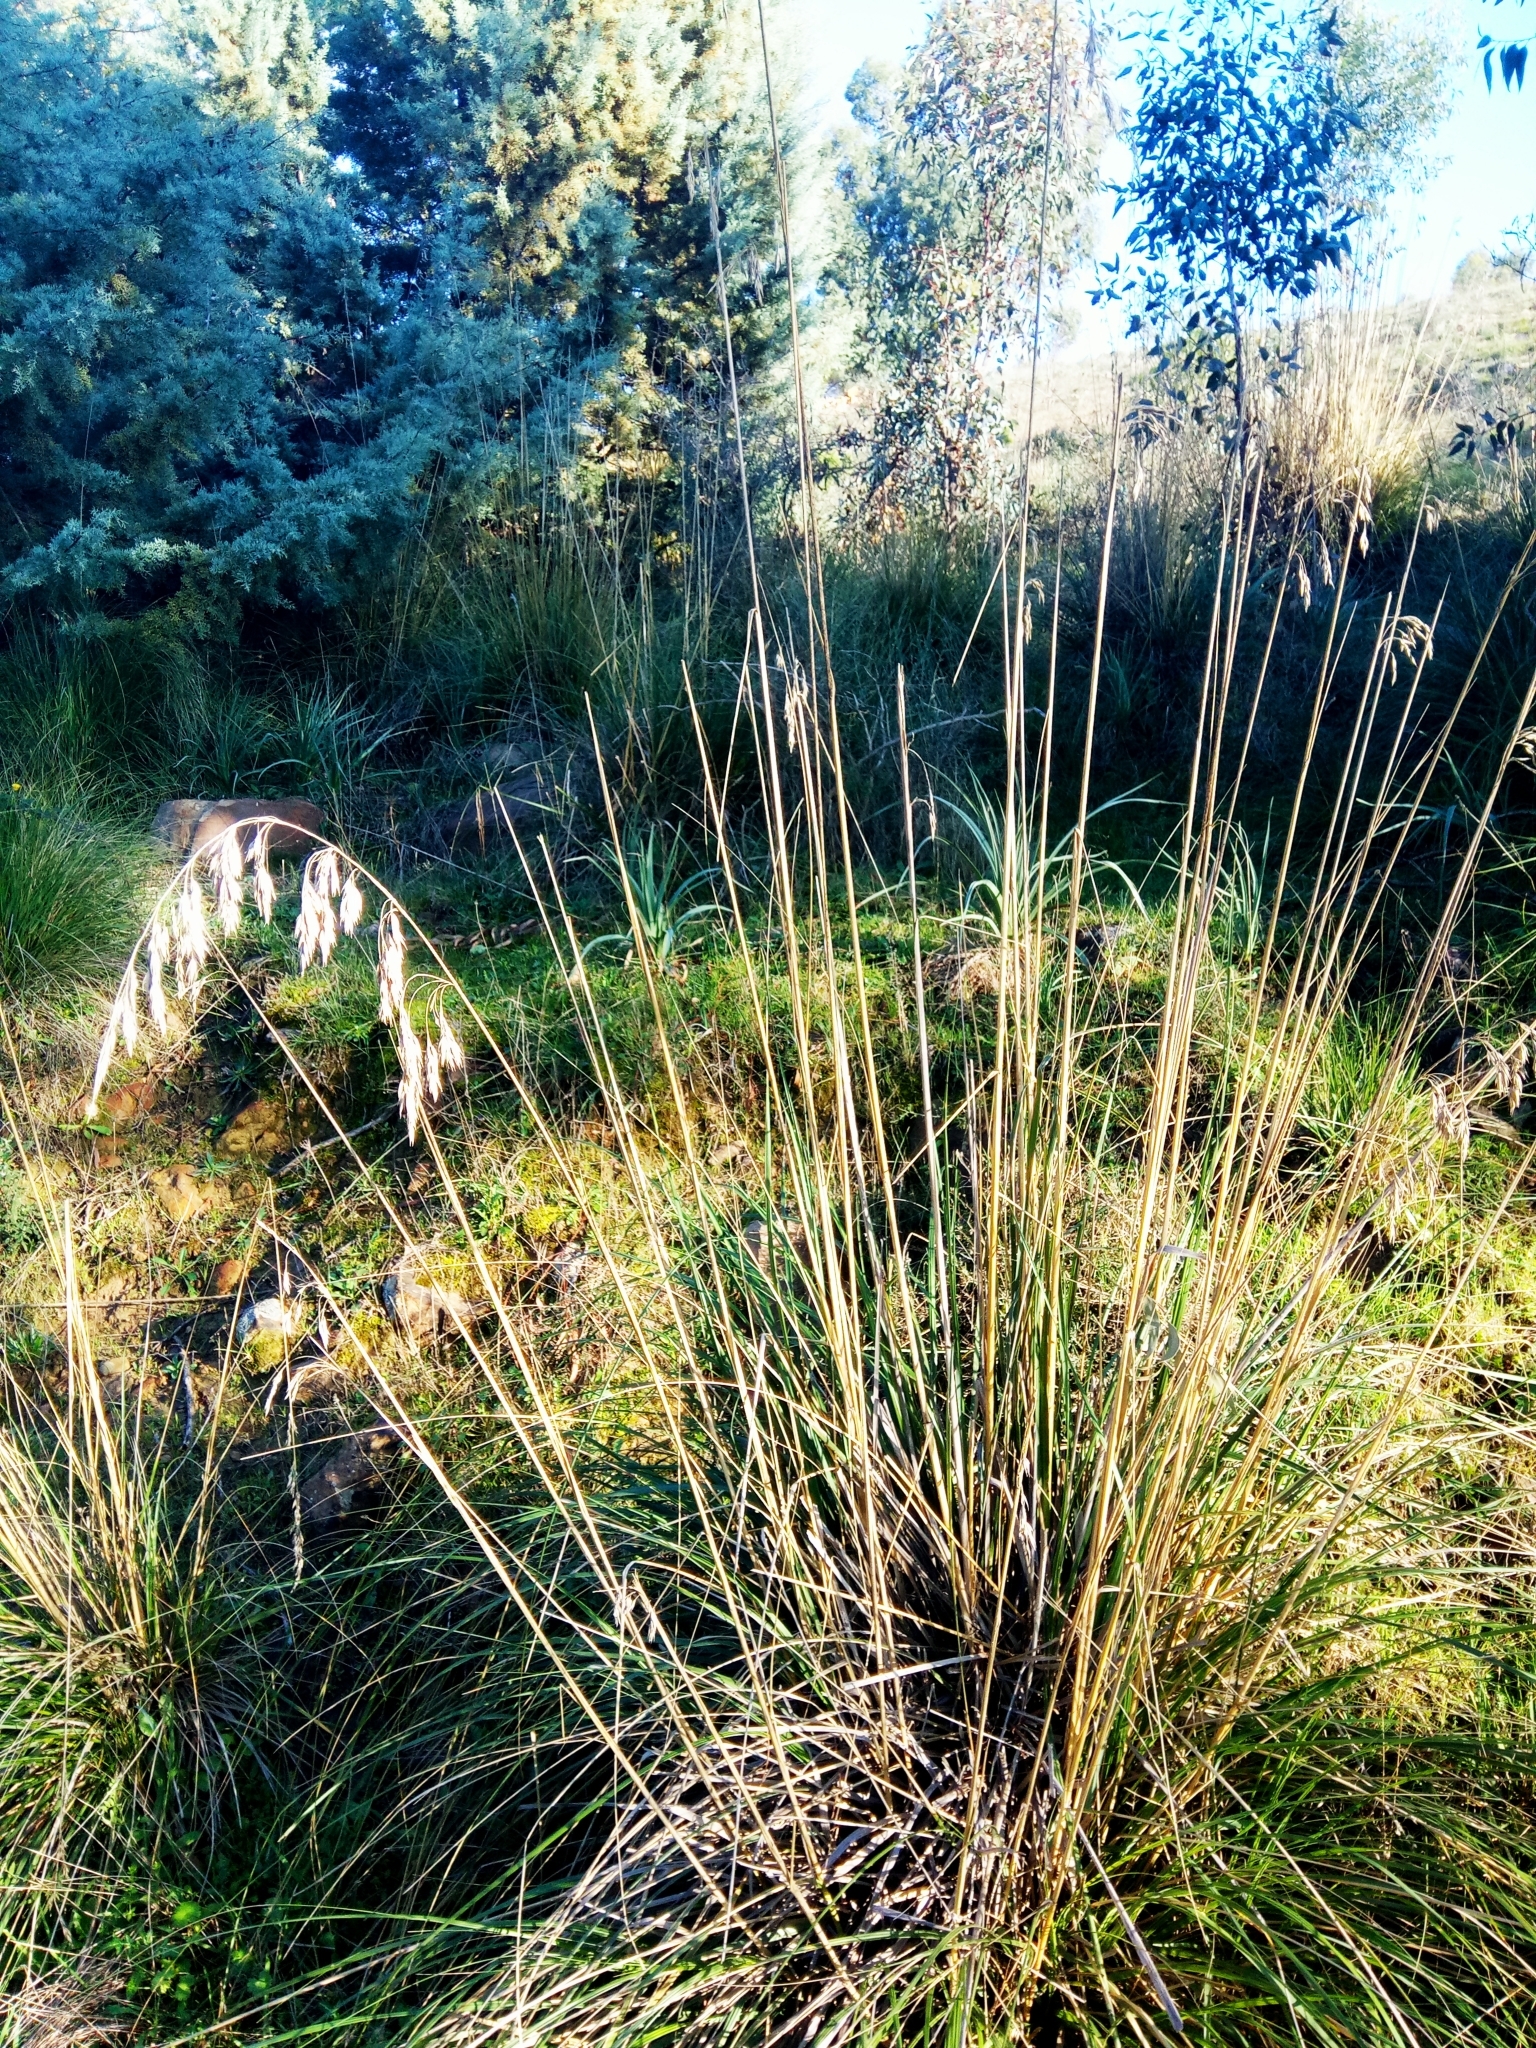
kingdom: Plantae
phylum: Tracheophyta
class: Liliopsida
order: Poales
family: Poaceae
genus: Ampelodesmos
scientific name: Ampelodesmos mauritanicus
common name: Mauritanian grass
